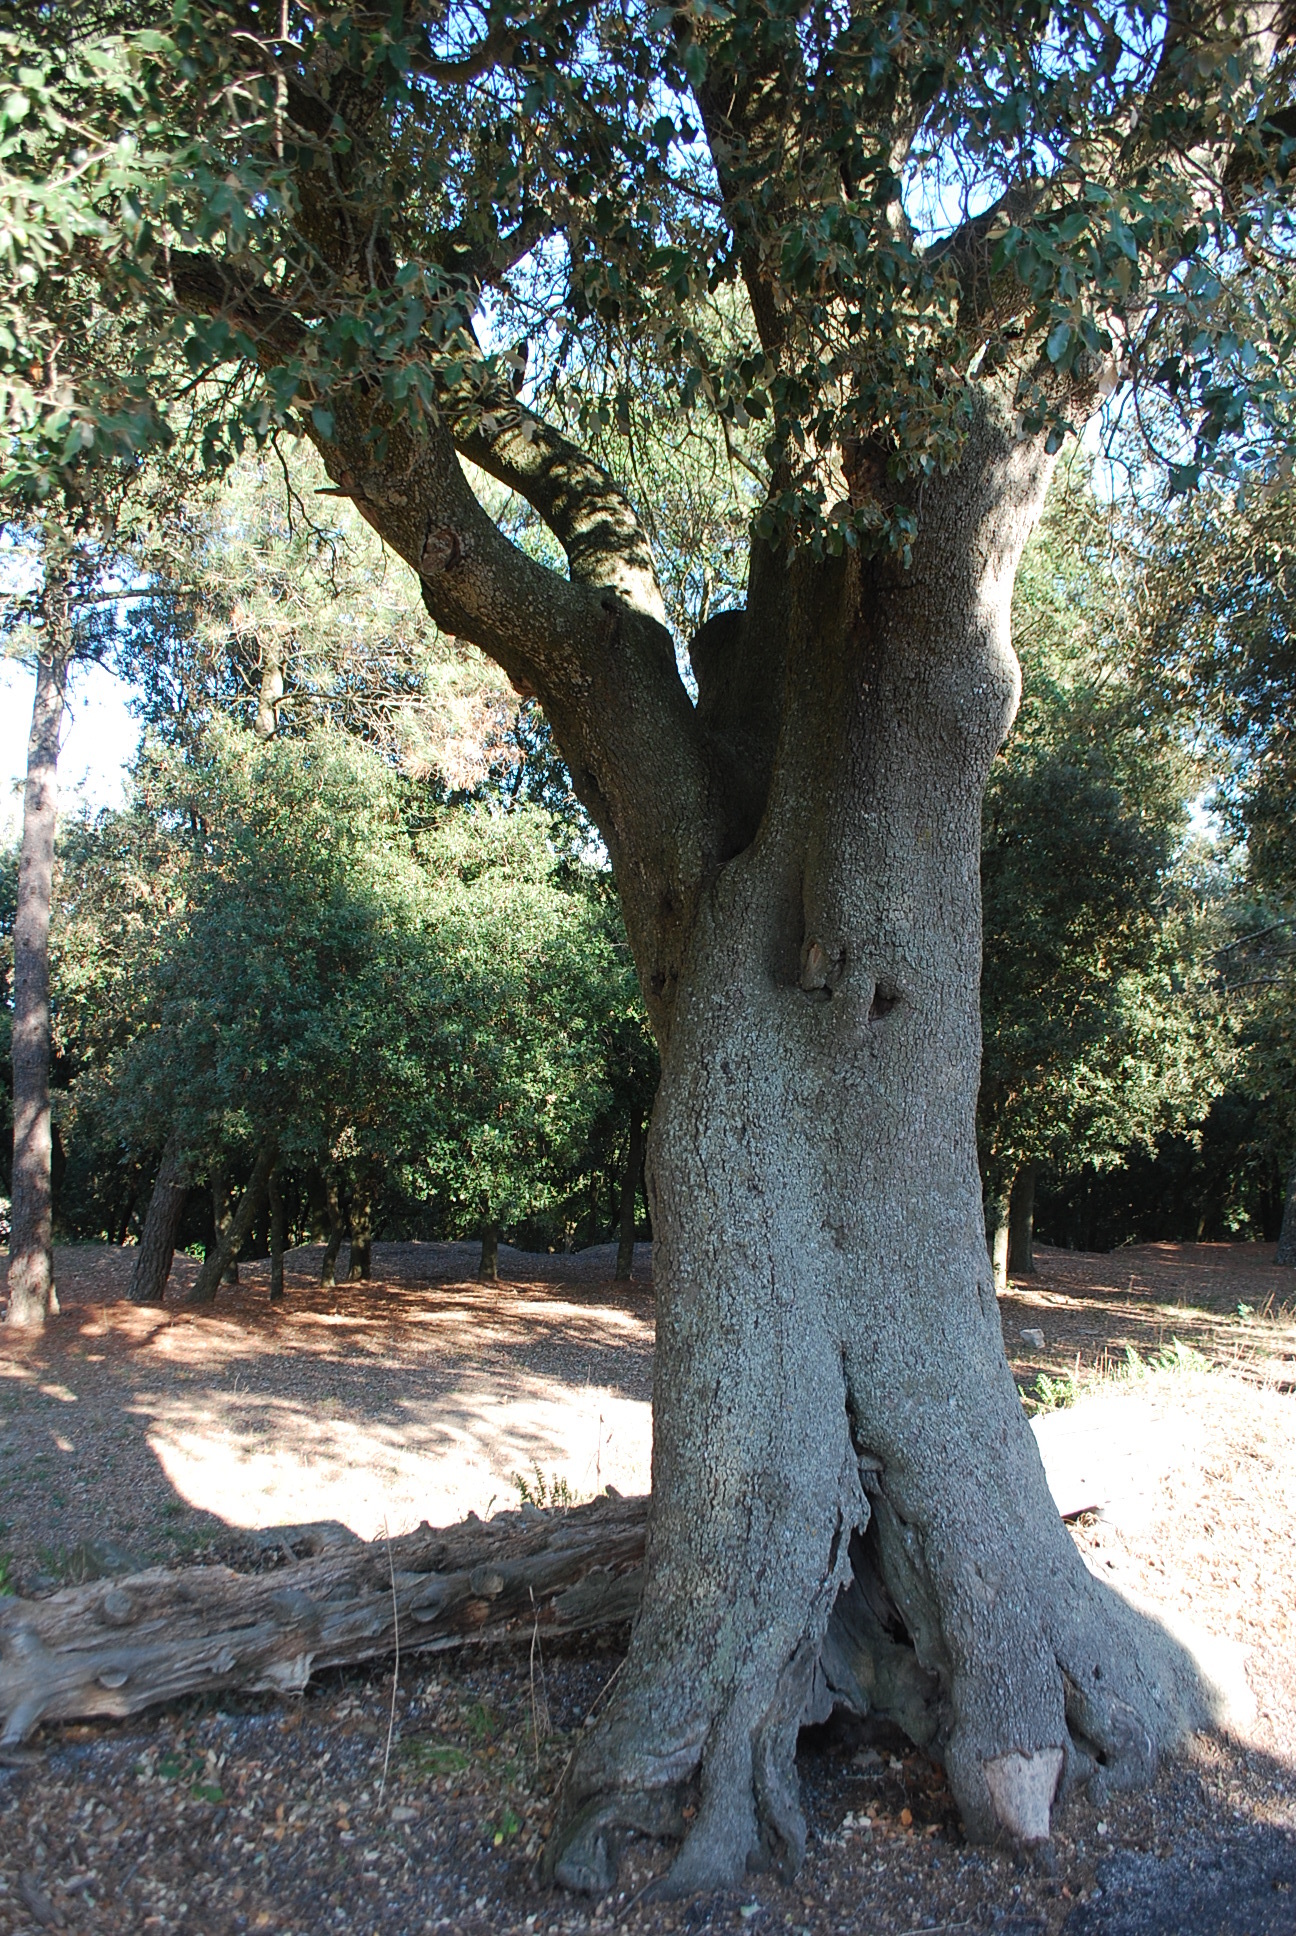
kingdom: Plantae
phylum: Tracheophyta
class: Magnoliopsida
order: Fagales
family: Fagaceae
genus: Quercus
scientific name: Quercus ilex
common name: Evergreen oak
